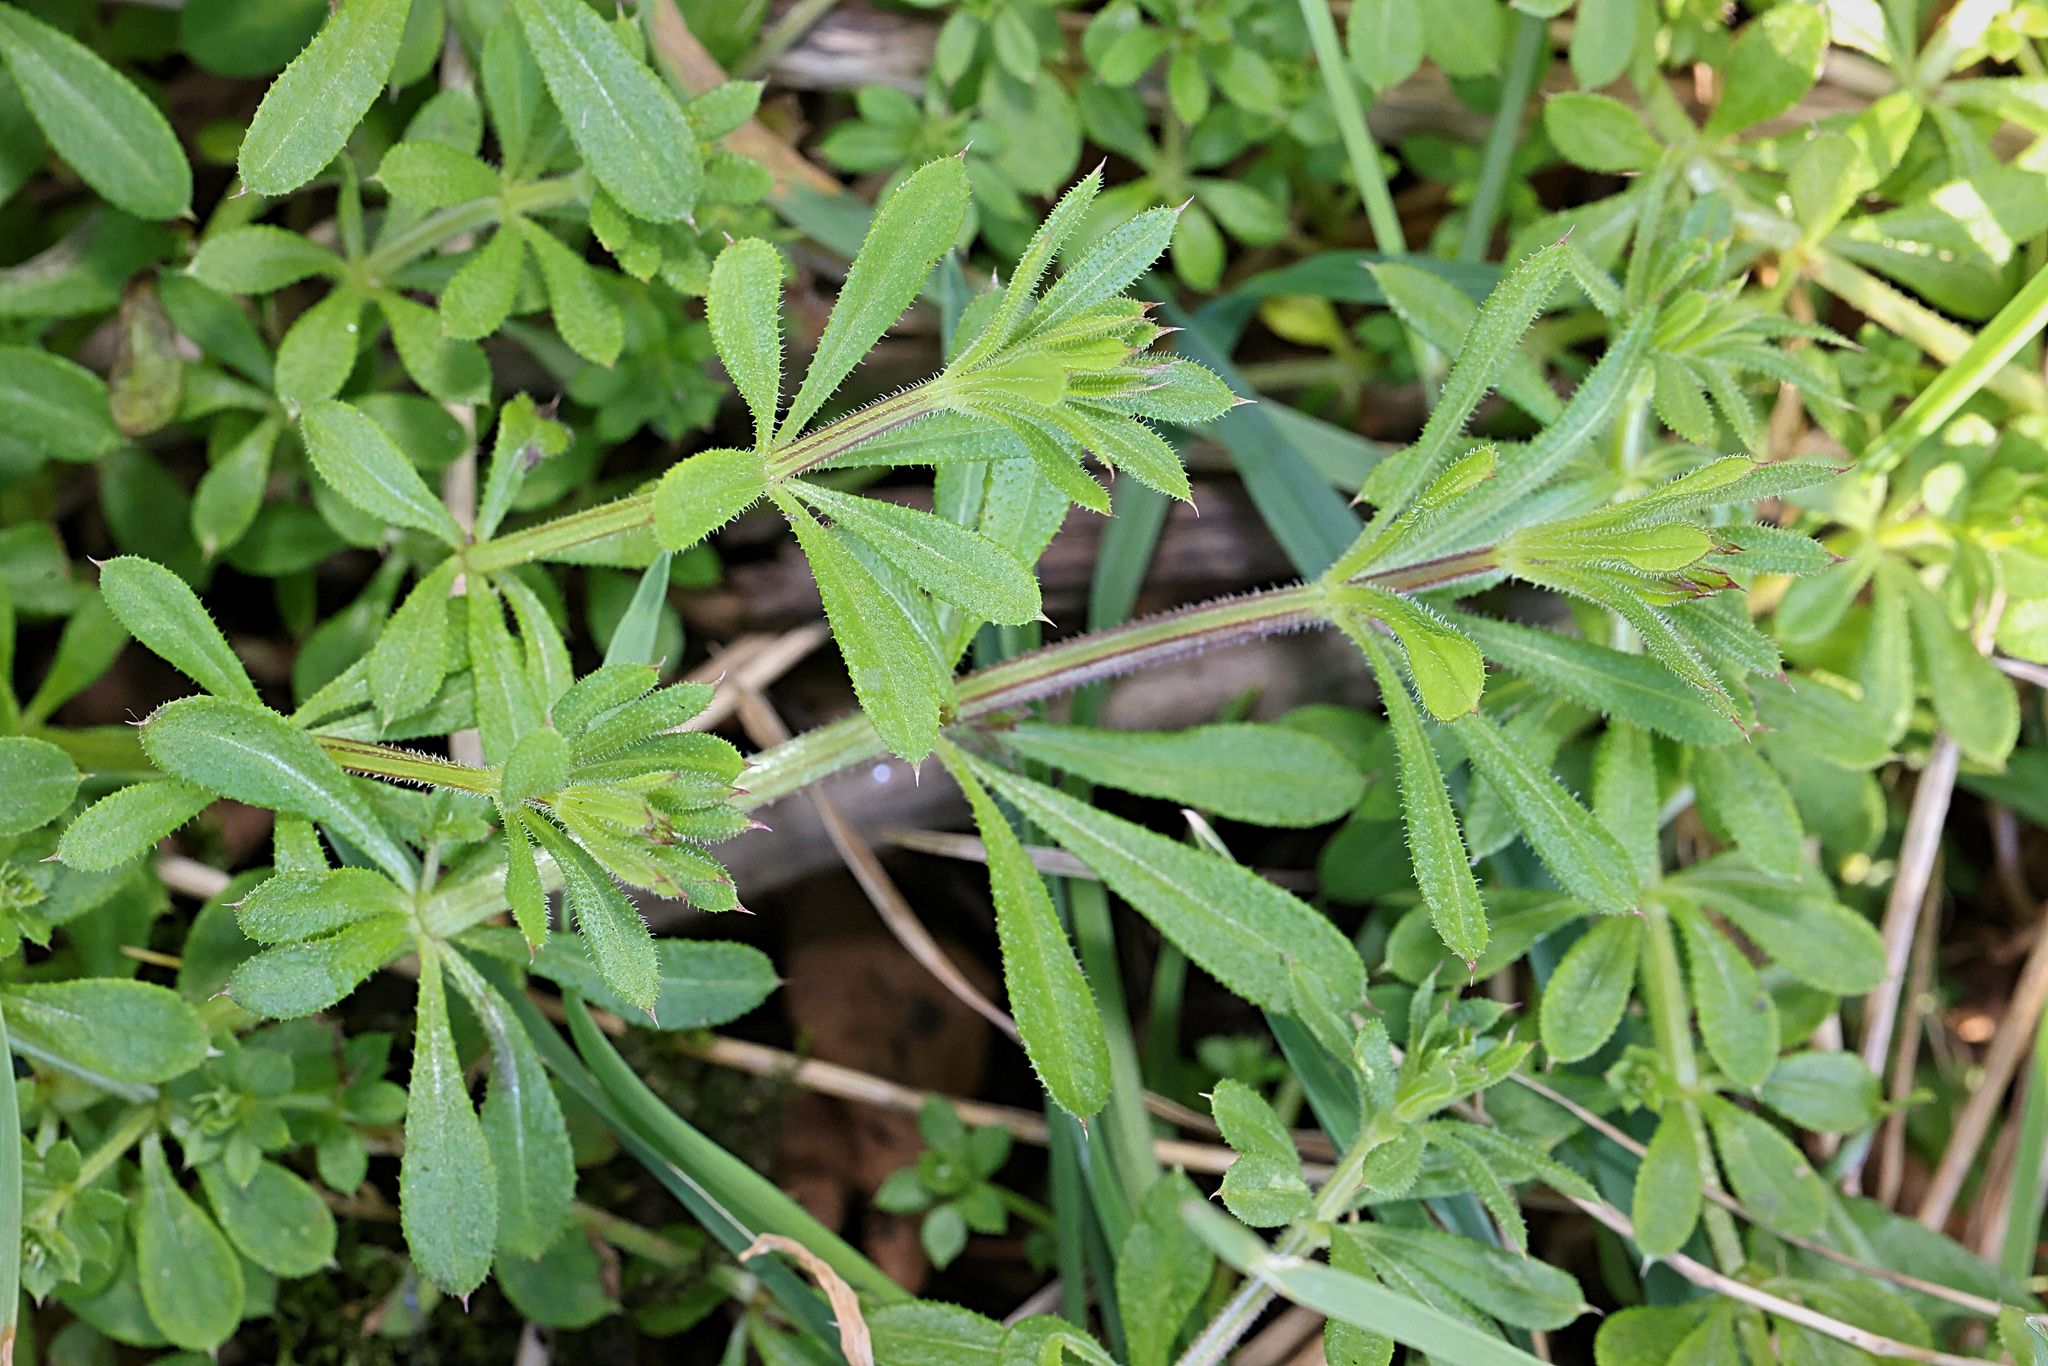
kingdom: Plantae
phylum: Tracheophyta
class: Magnoliopsida
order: Gentianales
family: Rubiaceae
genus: Galium
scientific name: Galium aparine
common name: Cleavers
